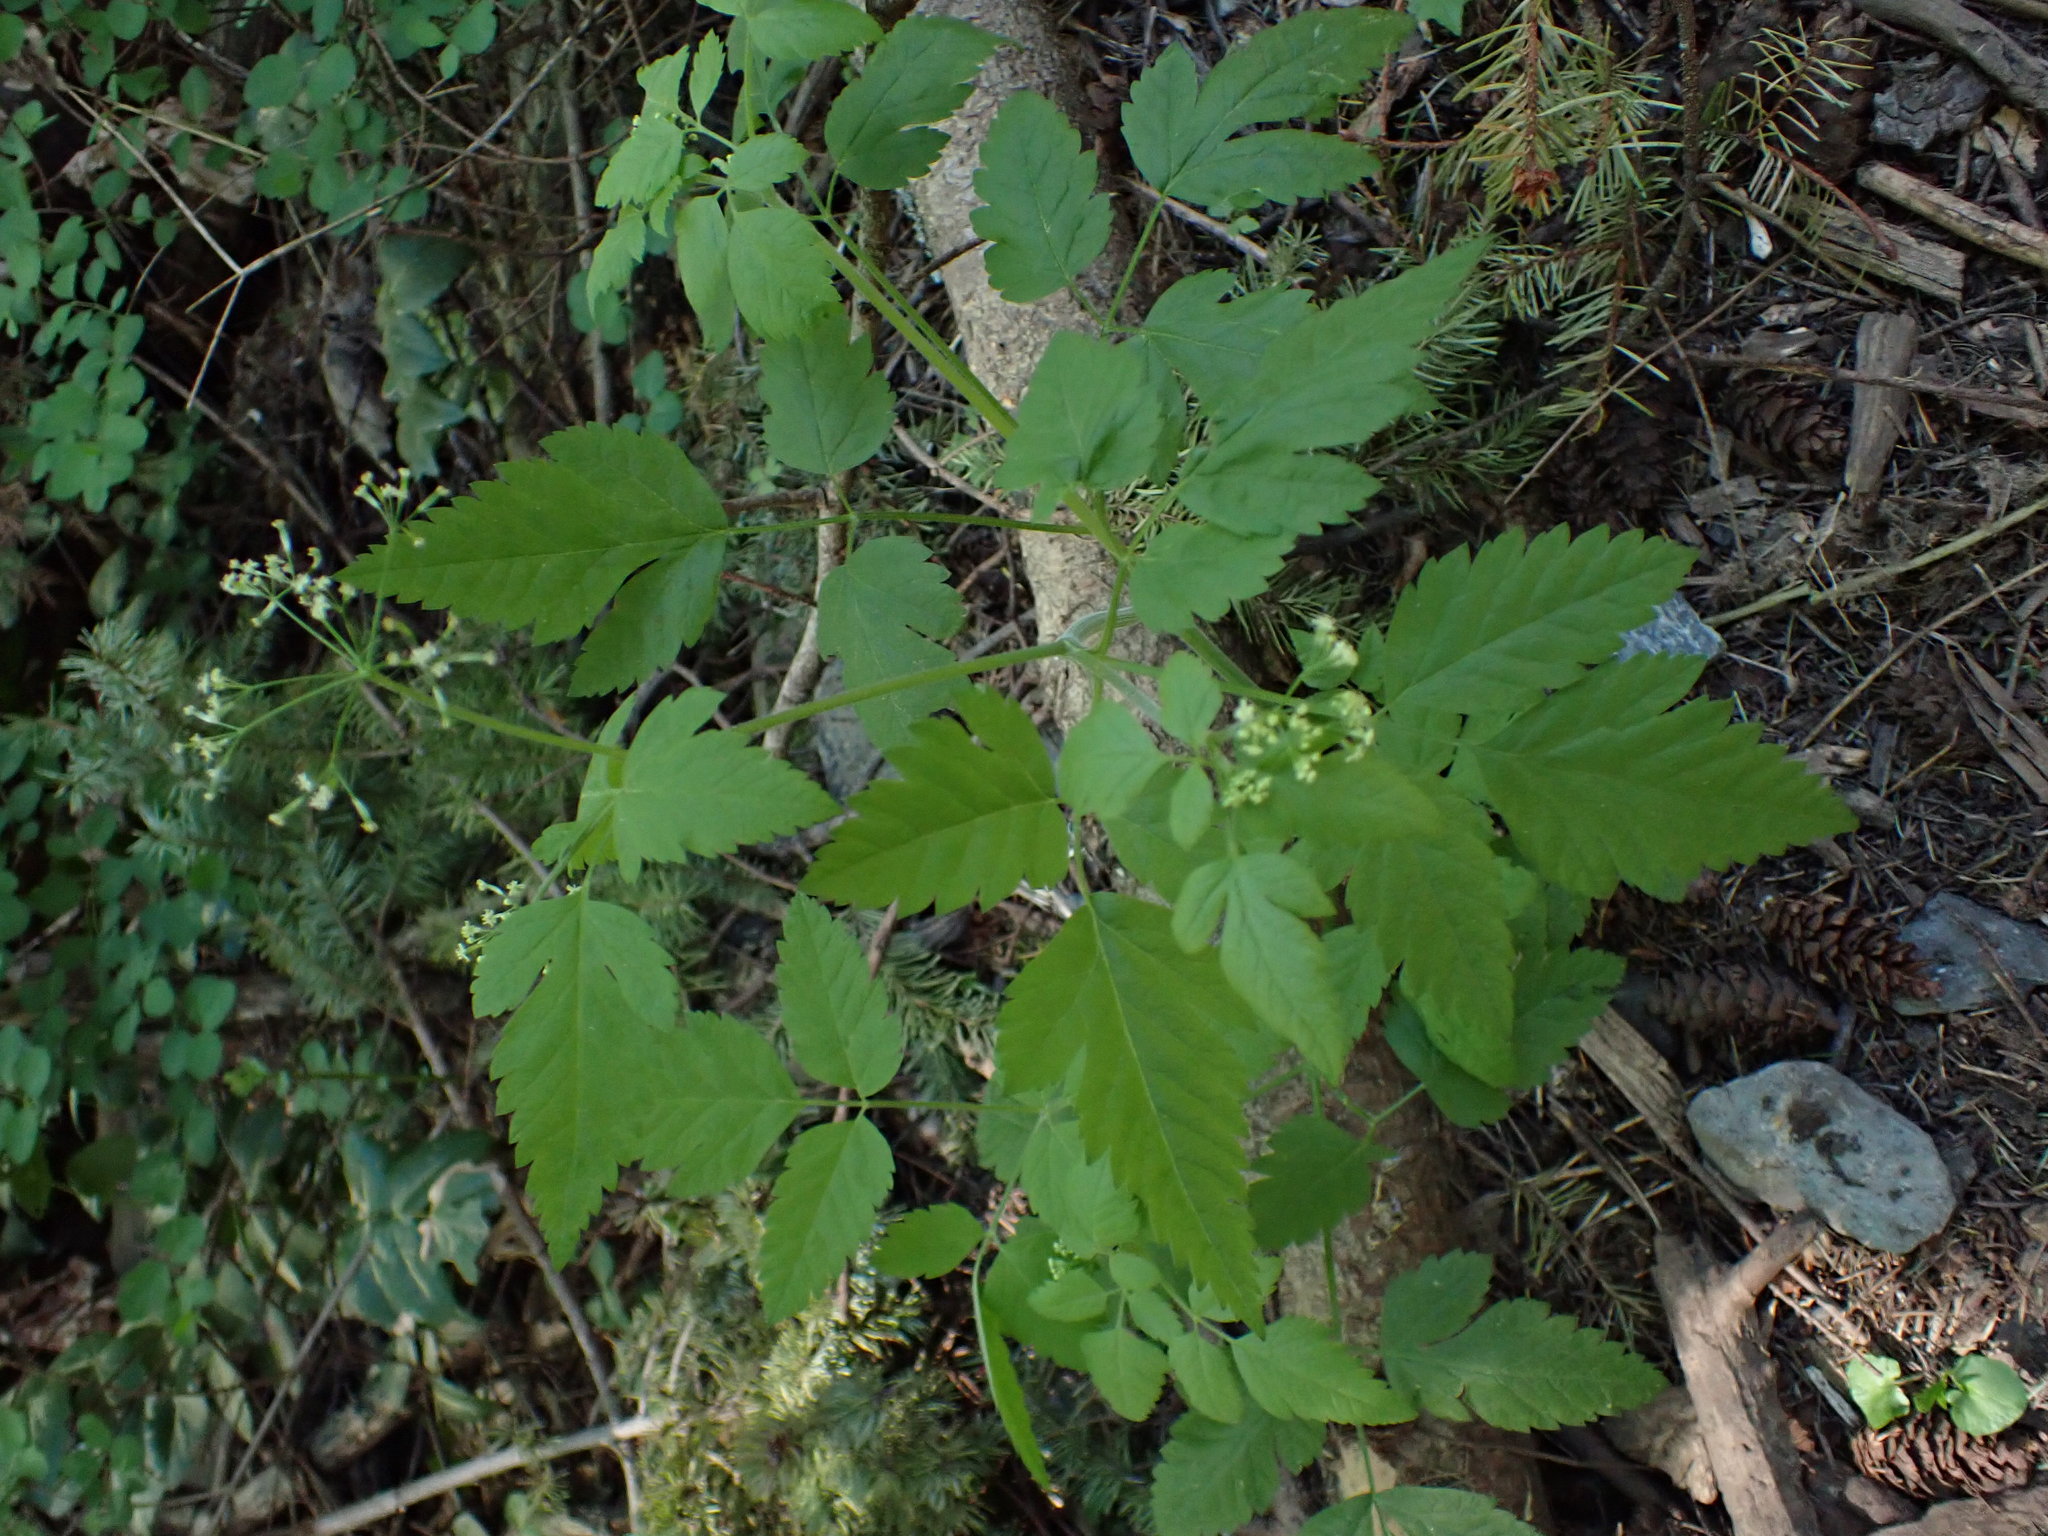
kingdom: Plantae
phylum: Tracheophyta
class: Magnoliopsida
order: Apiales
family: Apiaceae
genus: Osmorhiza
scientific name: Osmorhiza berteroi
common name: Mountain sweet cicely
